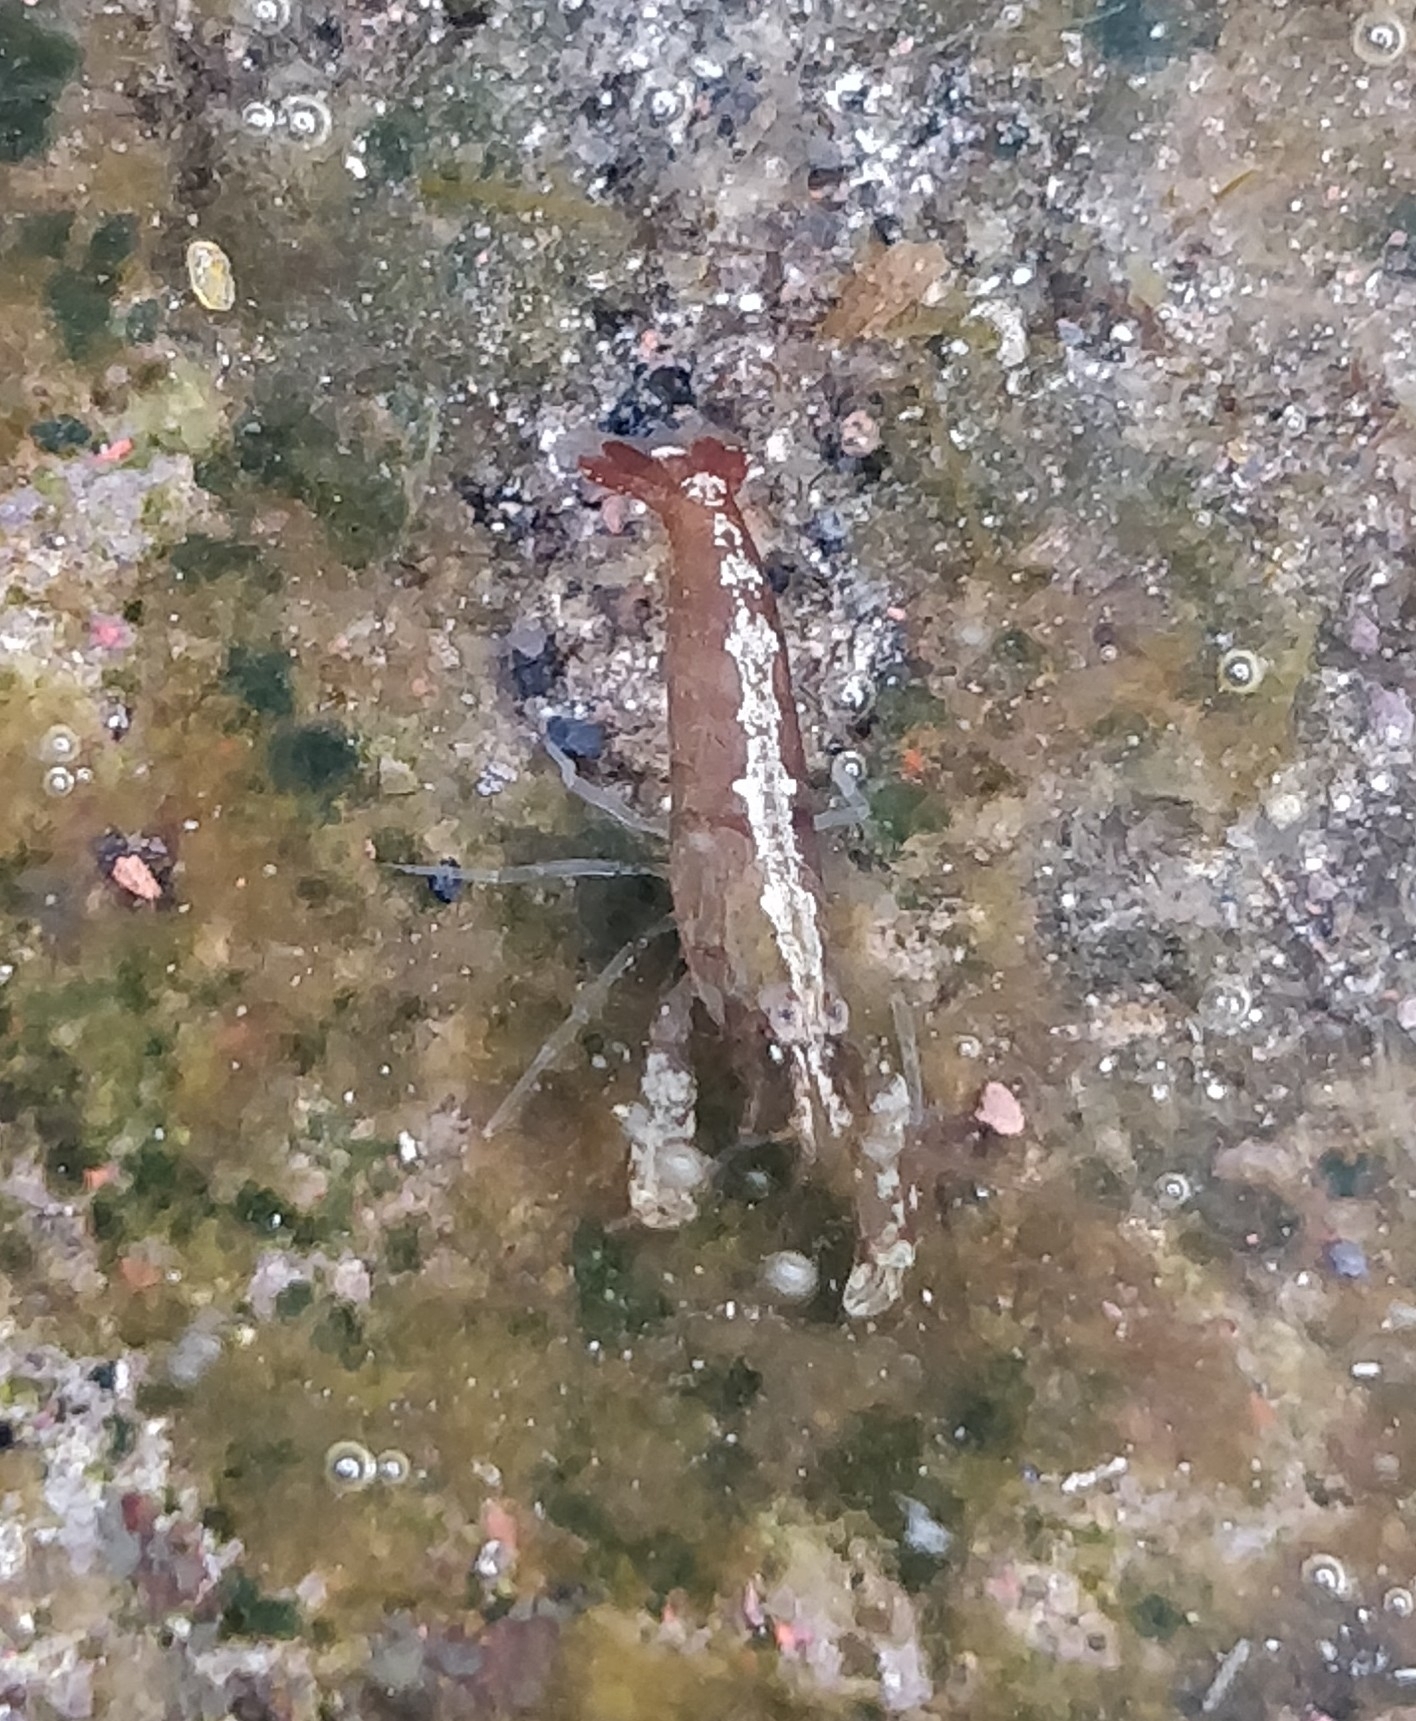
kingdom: Animalia
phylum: Arthropoda
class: Malacostraca
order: Decapoda
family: Alpheidae
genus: Athanas
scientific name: Athanas nitescens
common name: Hooded shrimp
